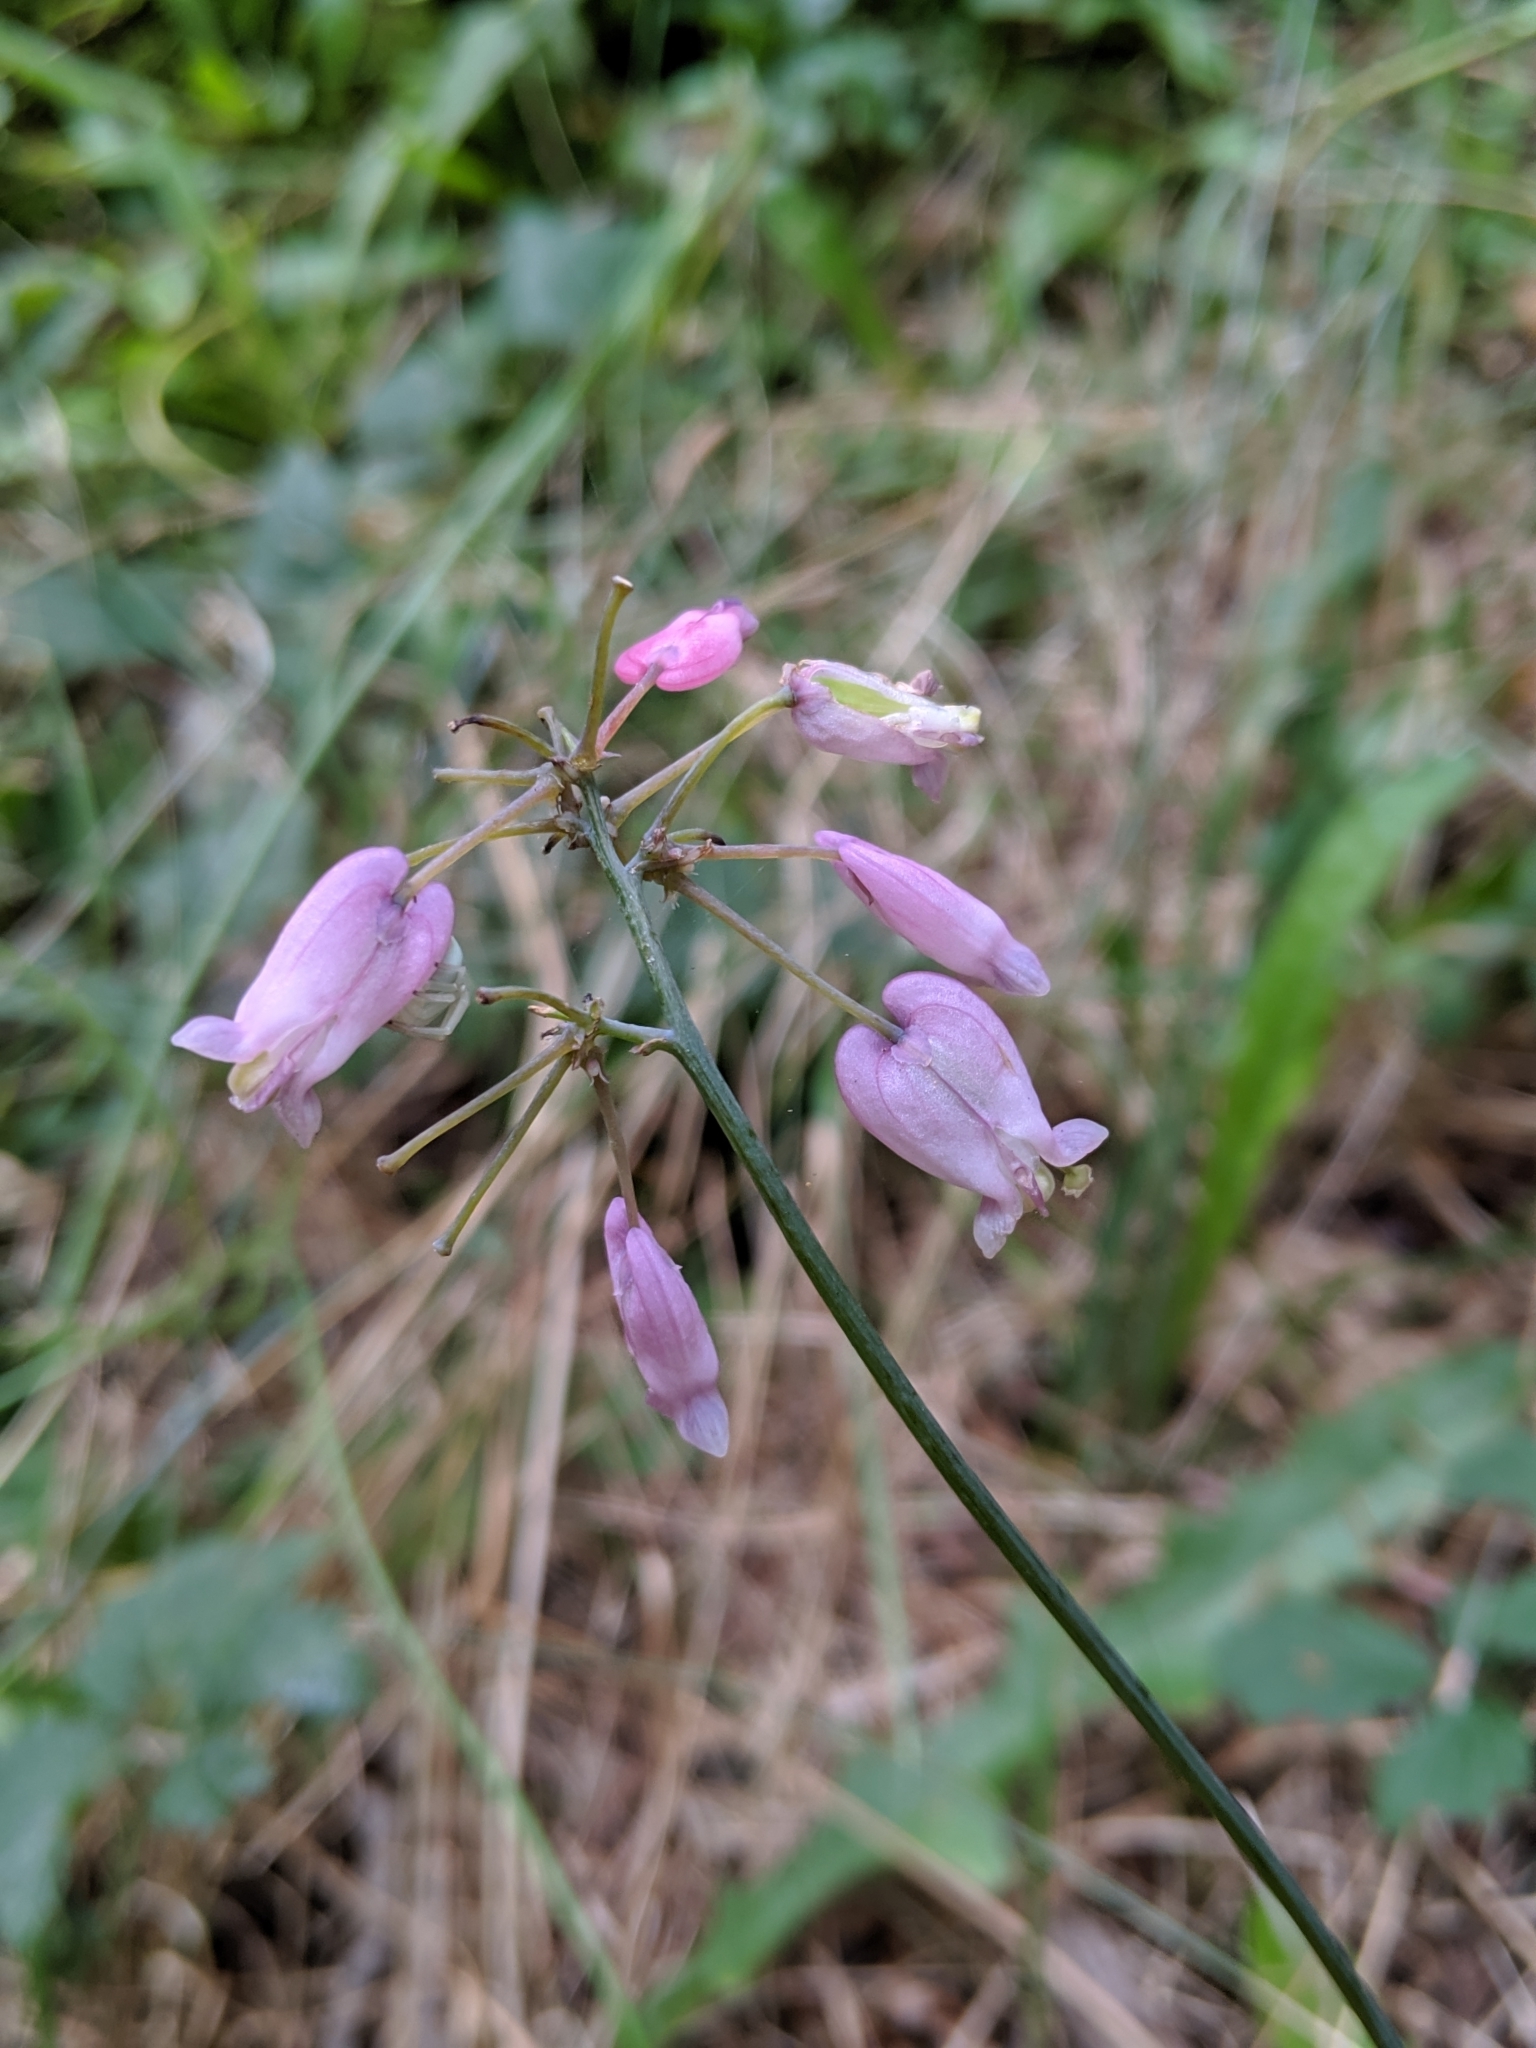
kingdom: Plantae
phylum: Tracheophyta
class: Magnoliopsida
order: Ranunculales
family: Papaveraceae
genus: Dicentra
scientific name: Dicentra formosa
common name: Bleeding-heart
